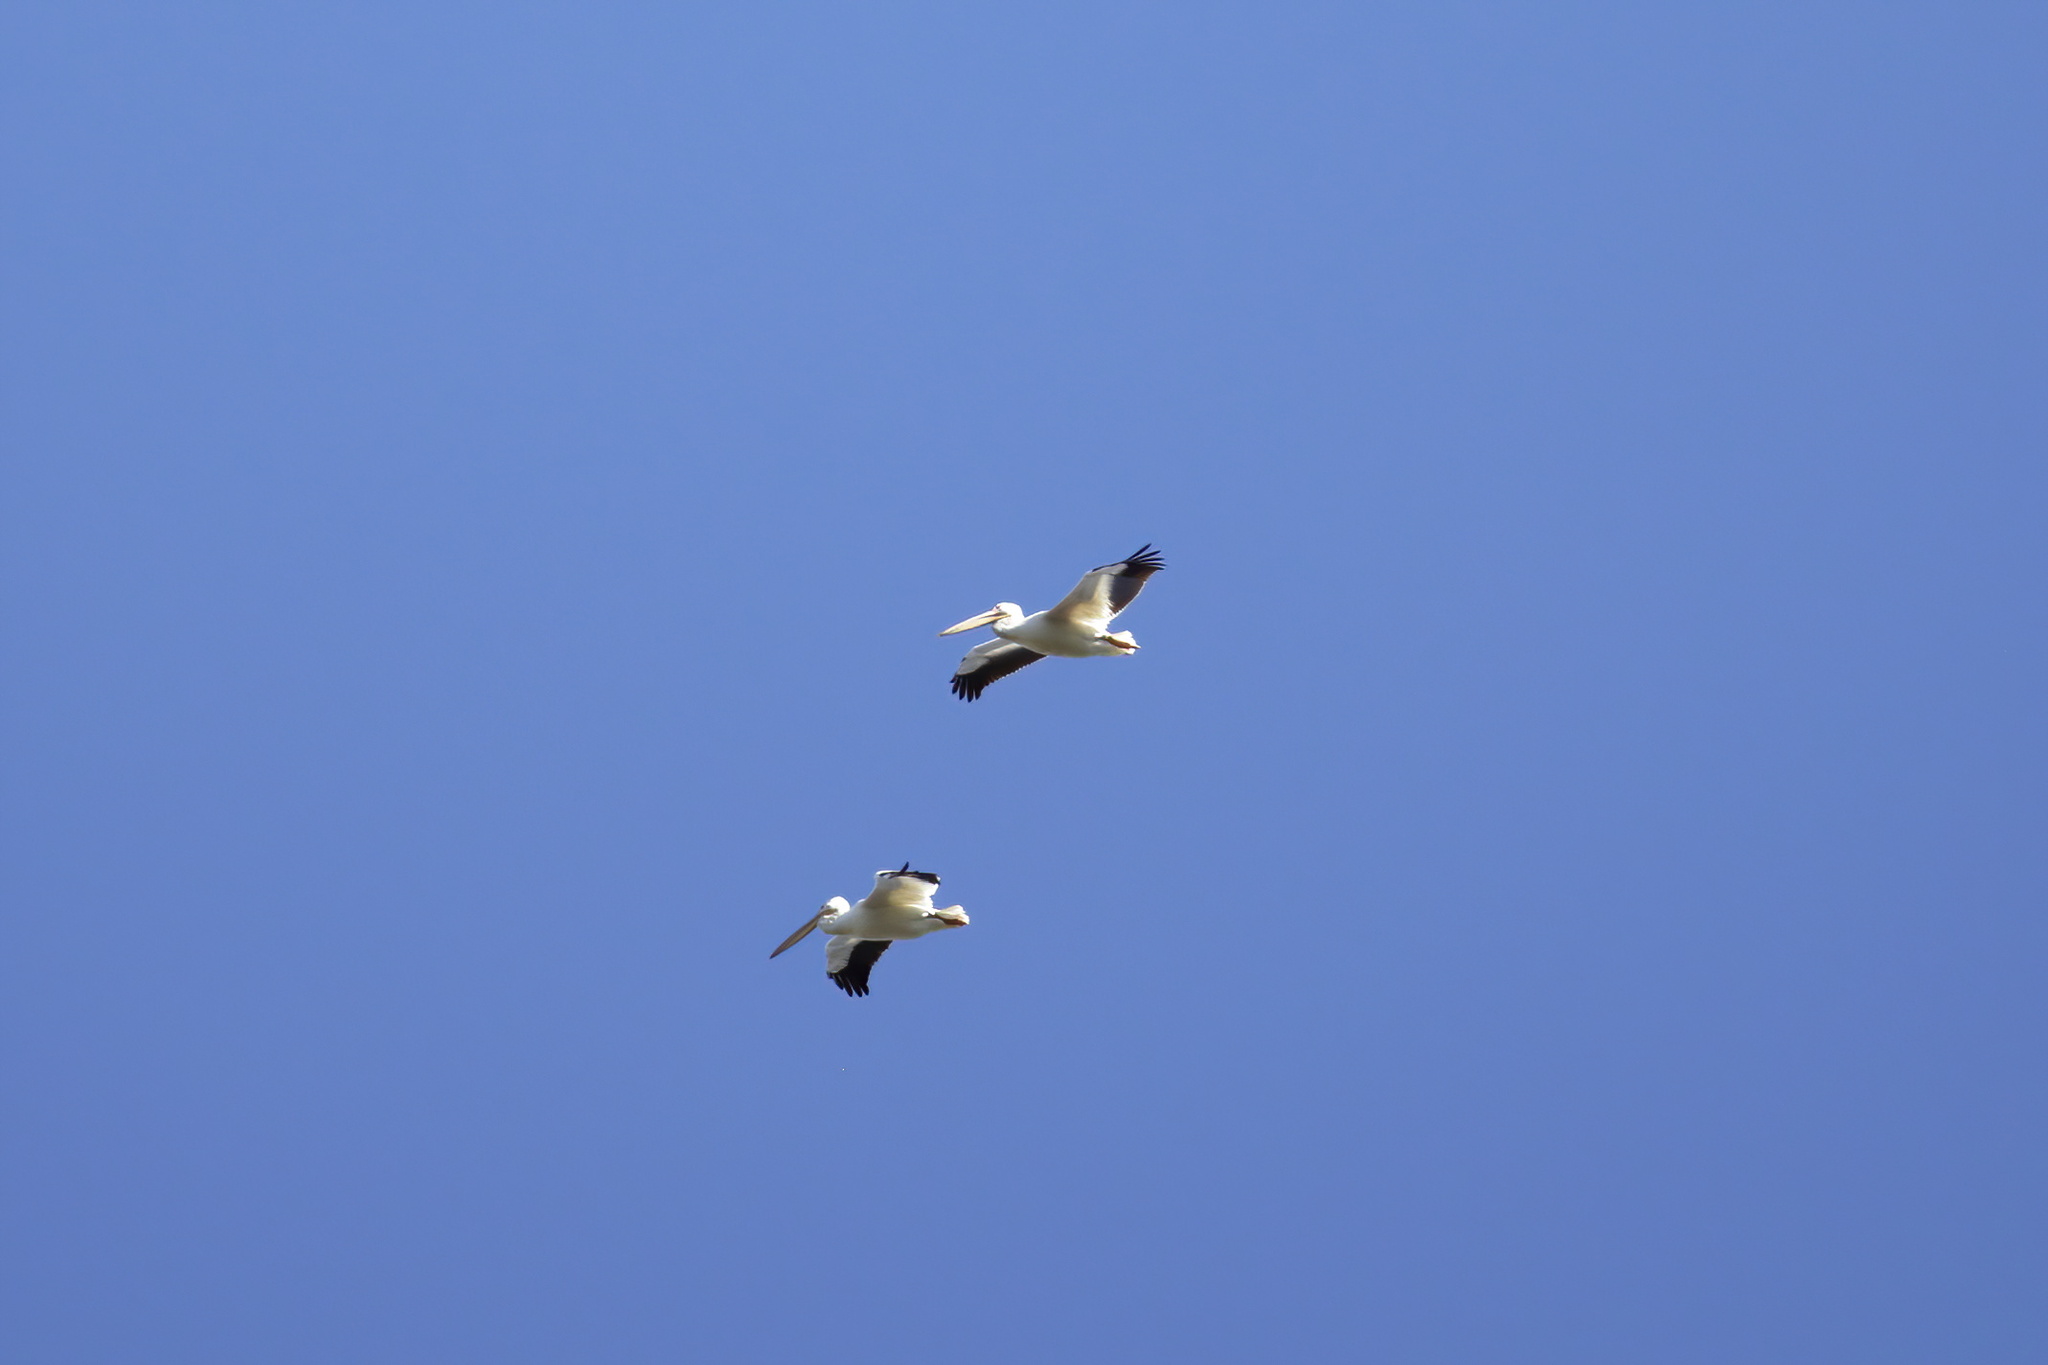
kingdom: Animalia
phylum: Chordata
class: Aves
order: Pelecaniformes
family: Pelecanidae
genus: Pelecanus
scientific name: Pelecanus erythrorhynchos
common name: American white pelican
